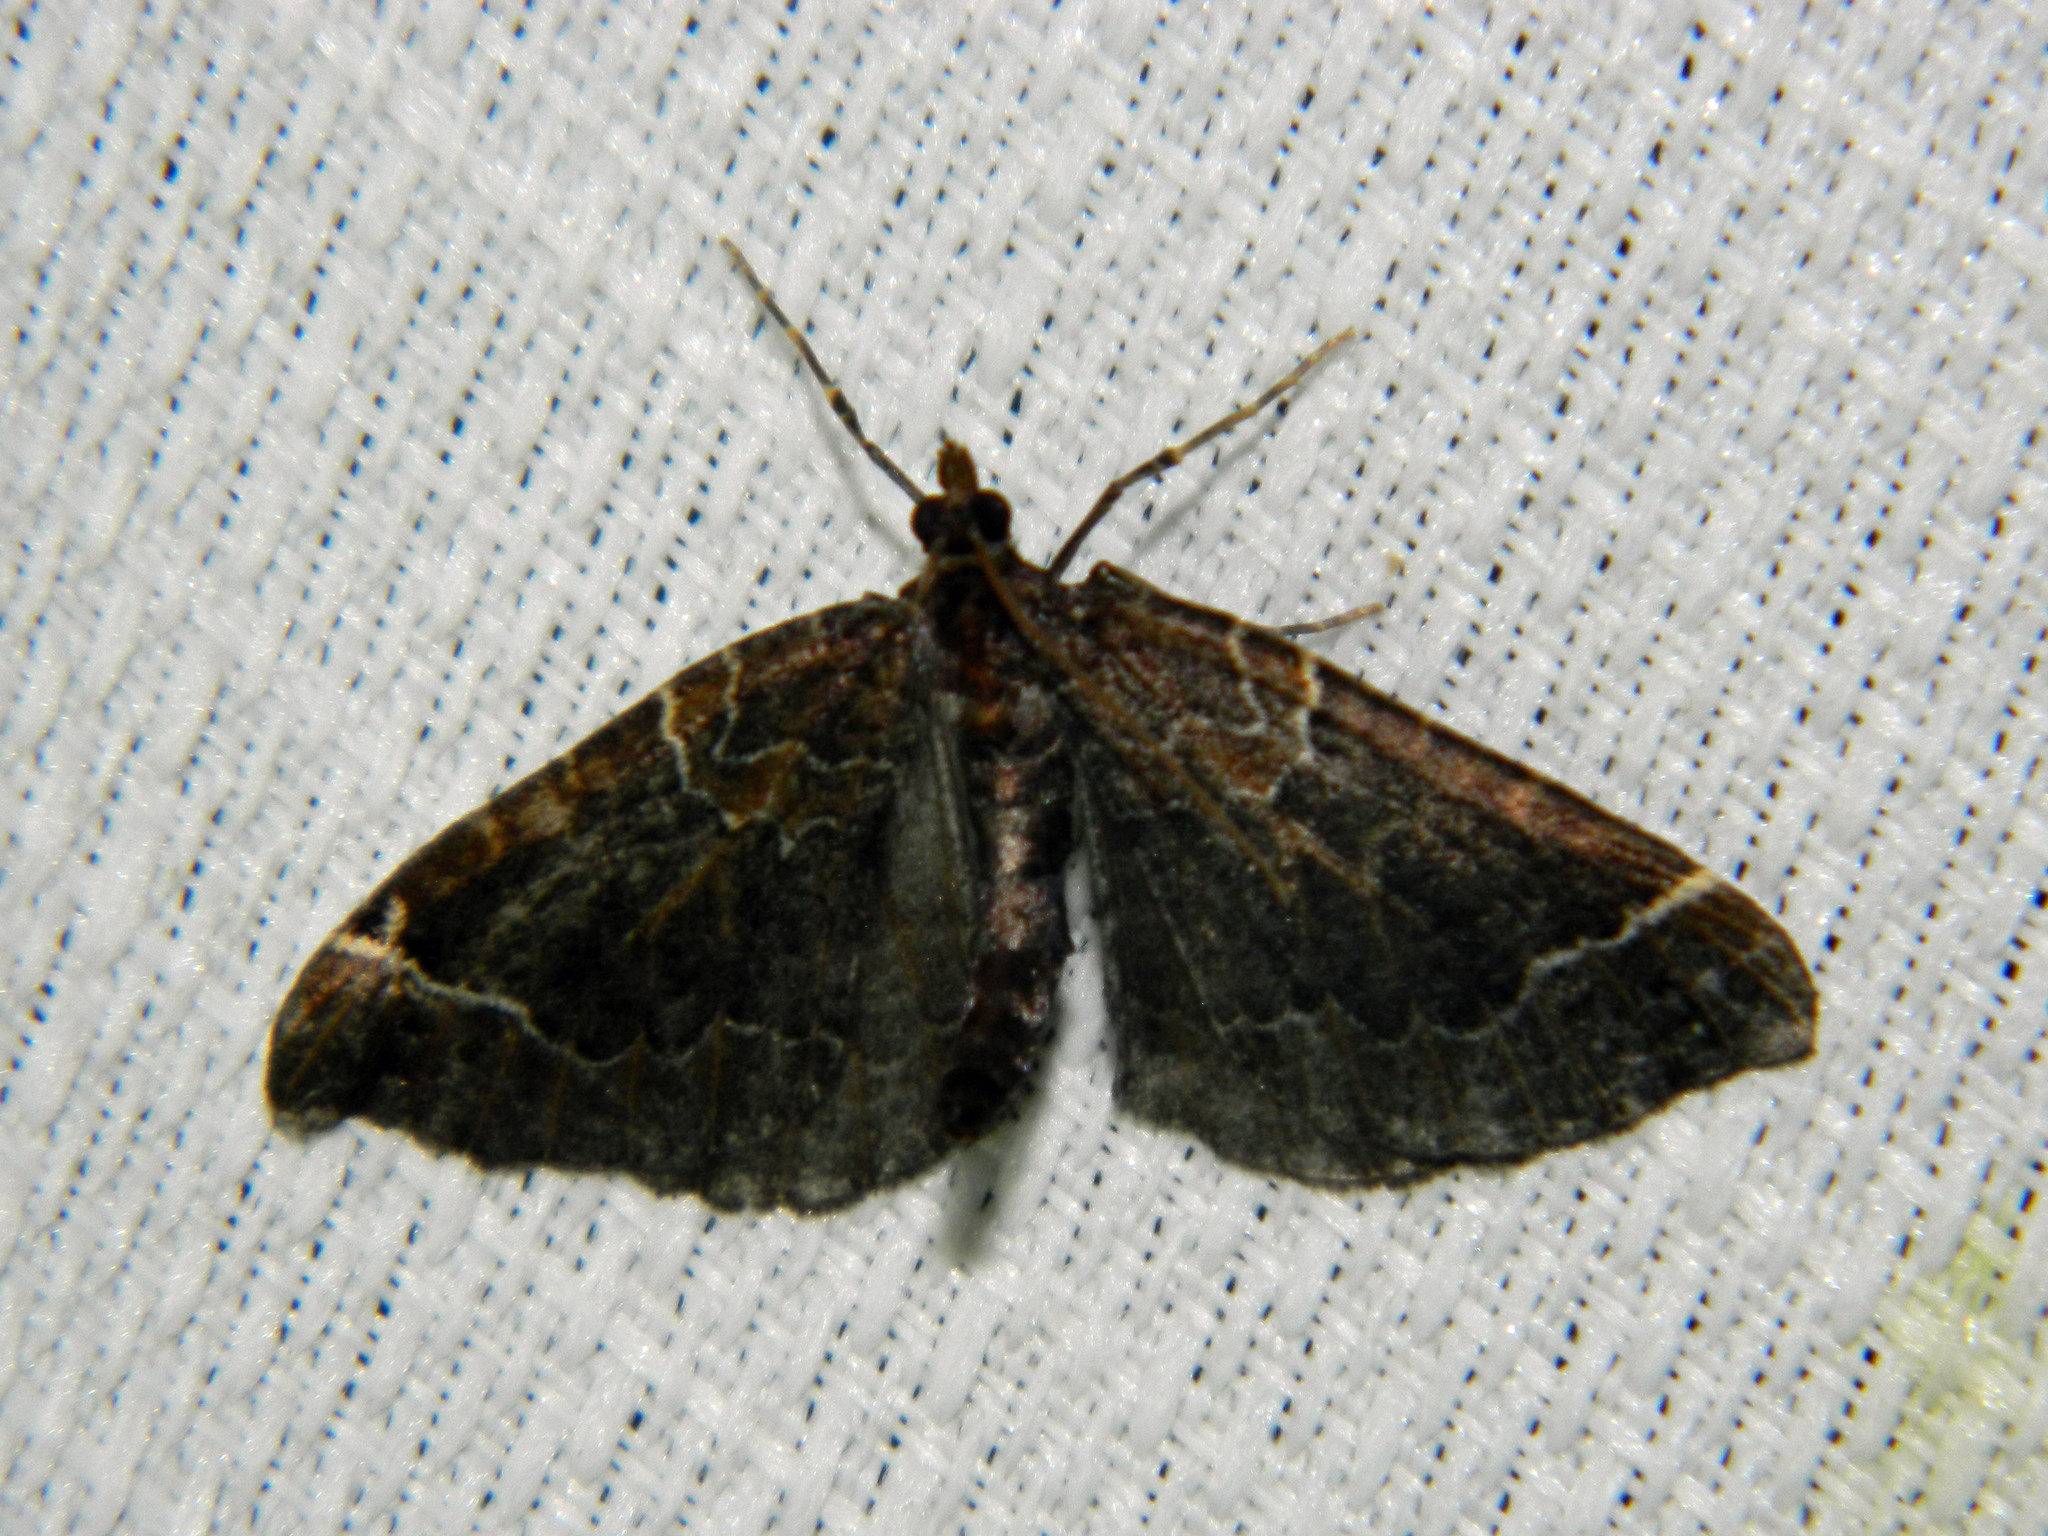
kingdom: Animalia
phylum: Arthropoda
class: Insecta
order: Lepidoptera
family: Geometridae
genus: Eulithis
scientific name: Eulithis flavibrunneata
